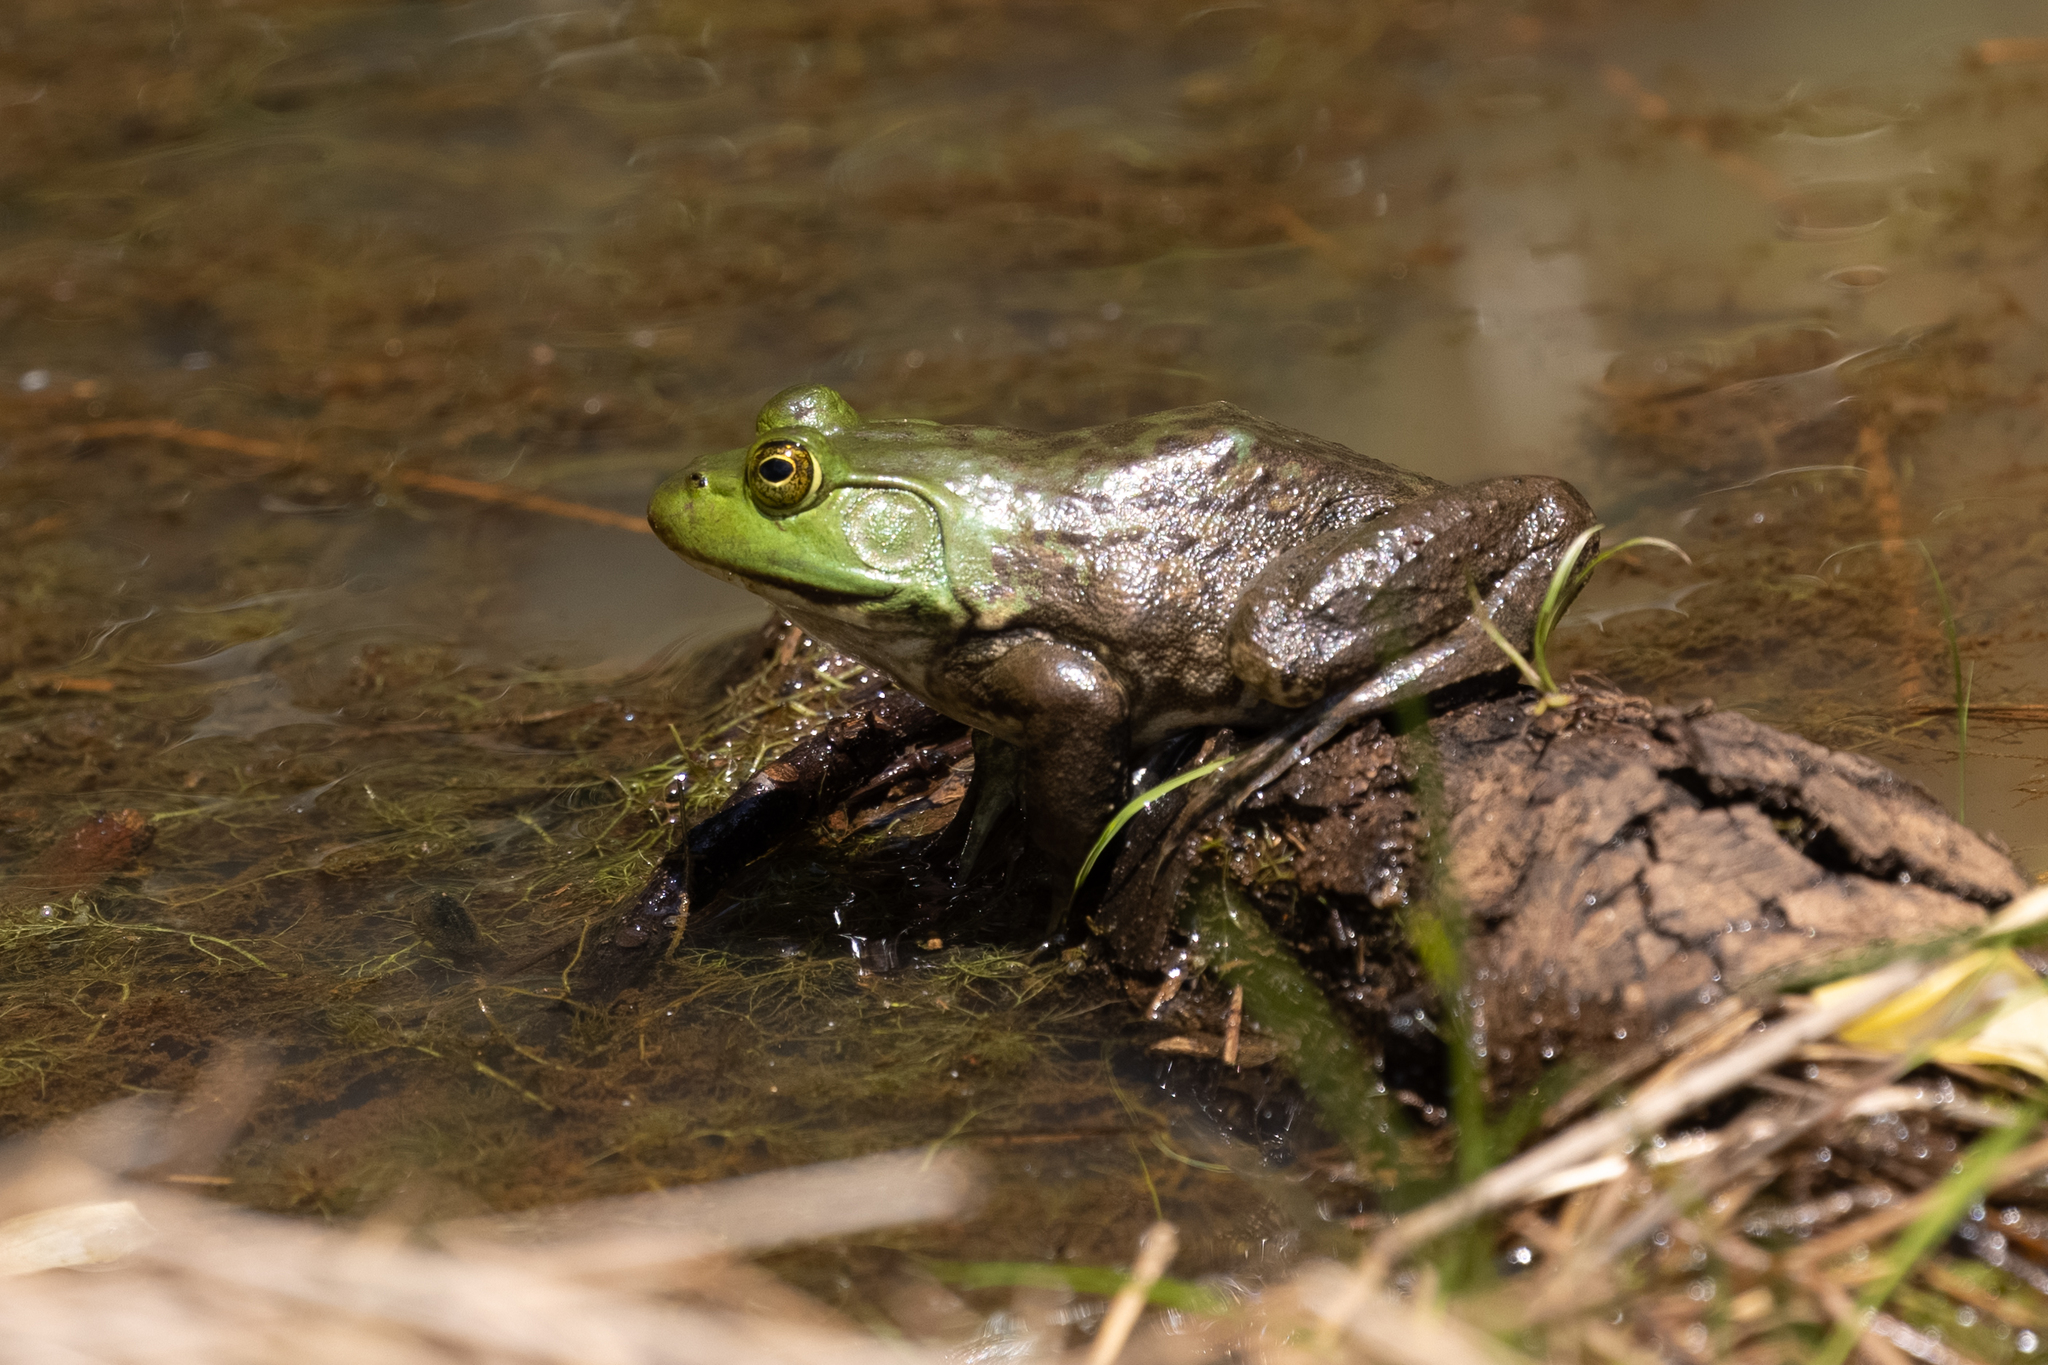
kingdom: Animalia
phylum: Chordata
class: Amphibia
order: Anura
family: Ranidae
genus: Lithobates
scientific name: Lithobates catesbeianus
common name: American bullfrog
